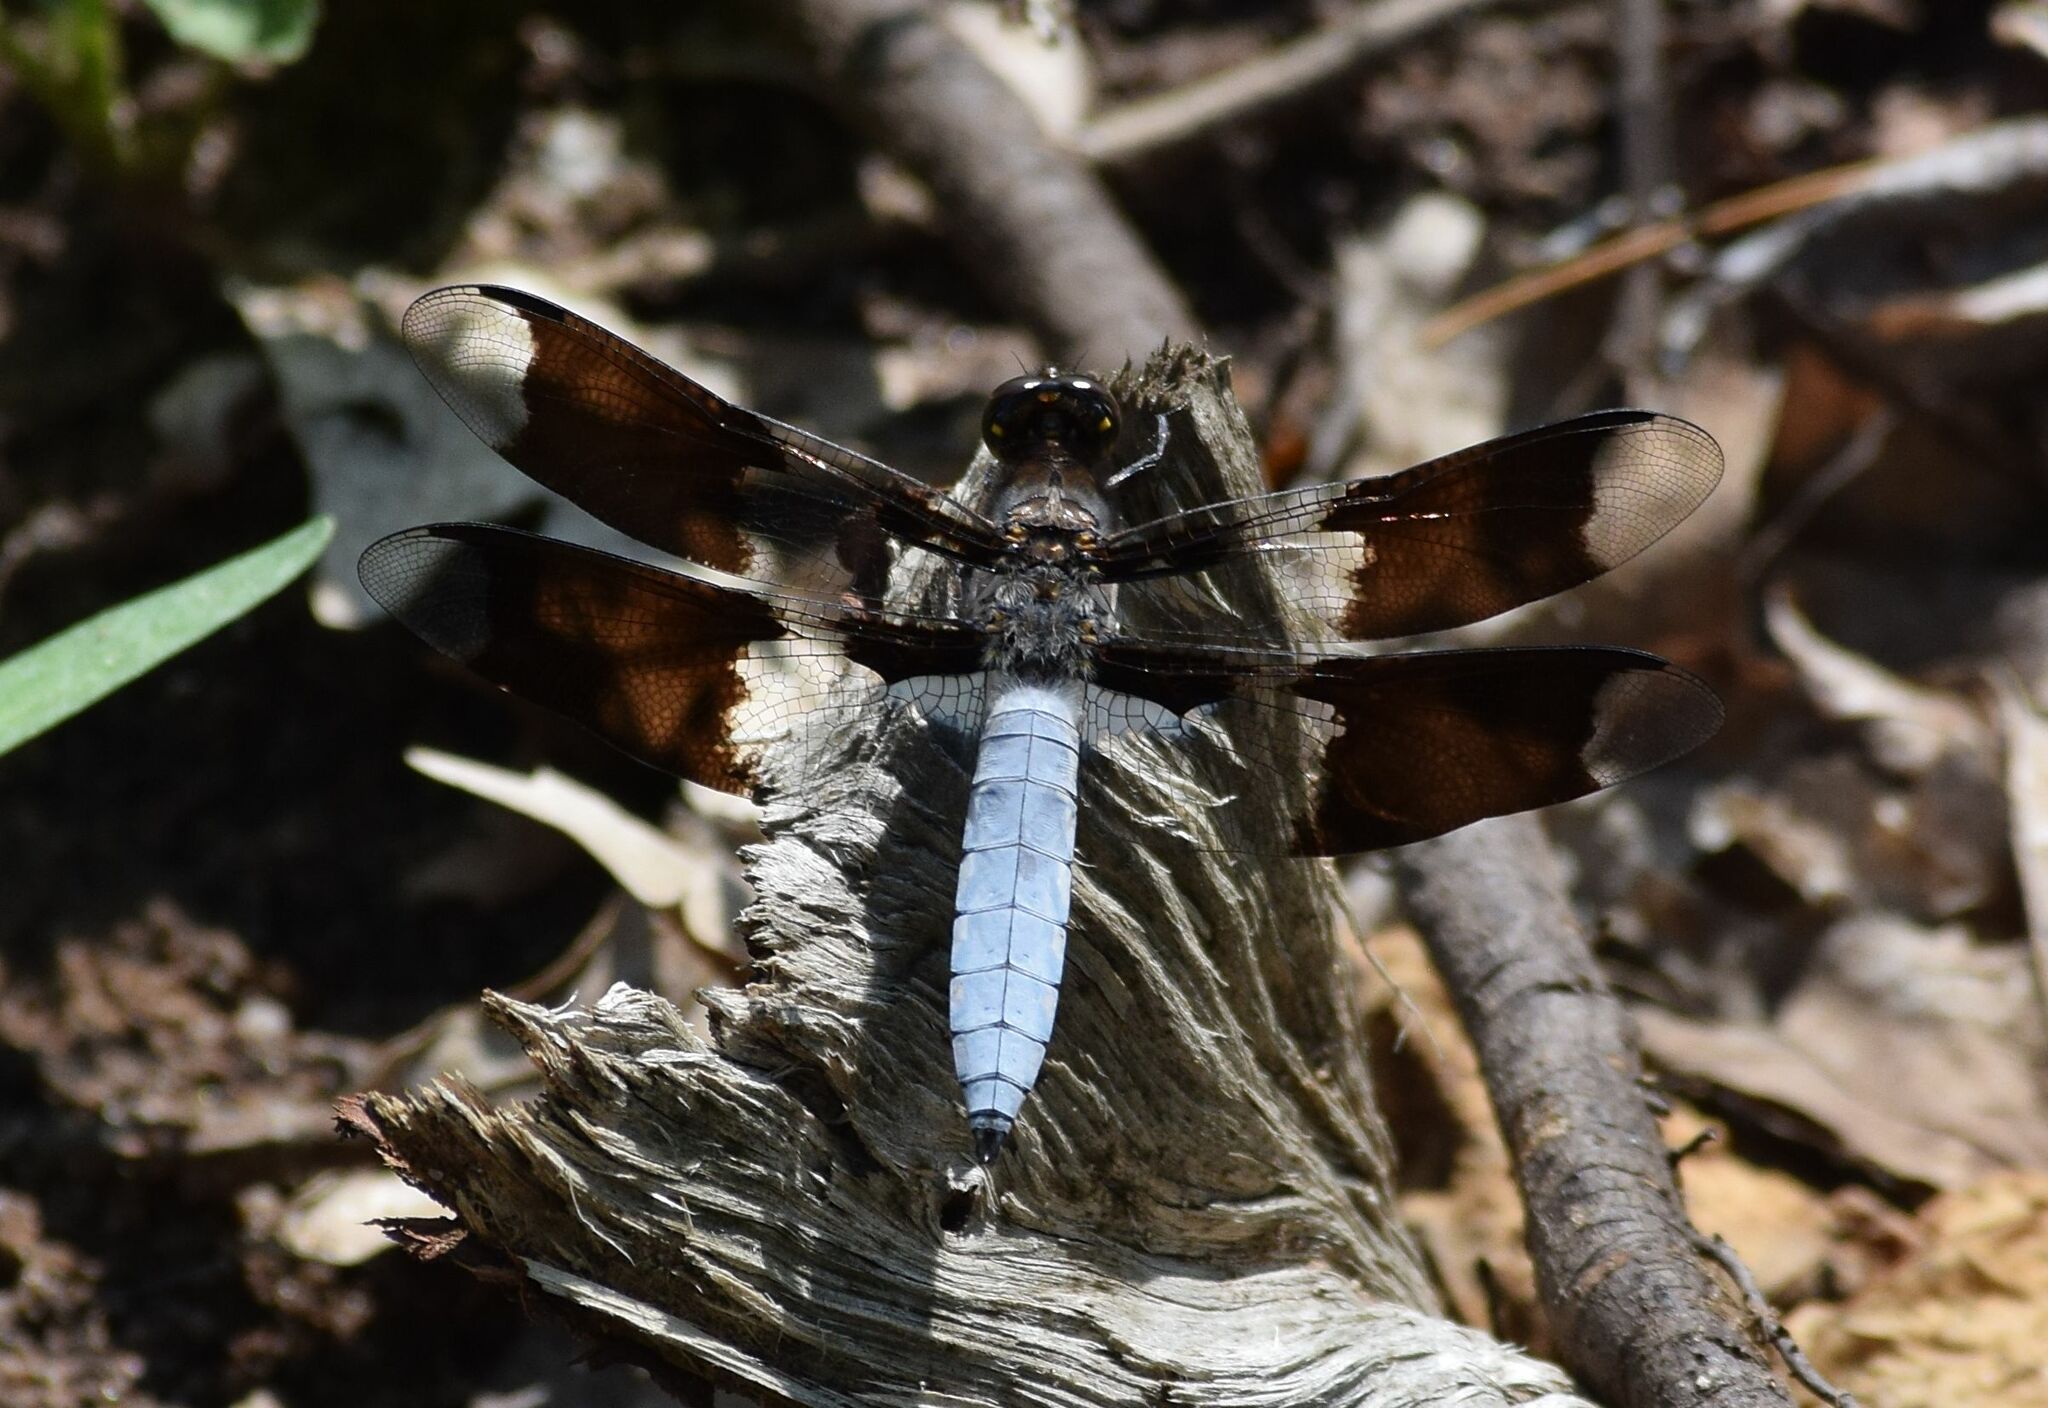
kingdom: Animalia
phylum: Arthropoda
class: Insecta
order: Odonata
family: Libellulidae
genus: Plathemis
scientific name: Plathemis lydia
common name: Common whitetail
